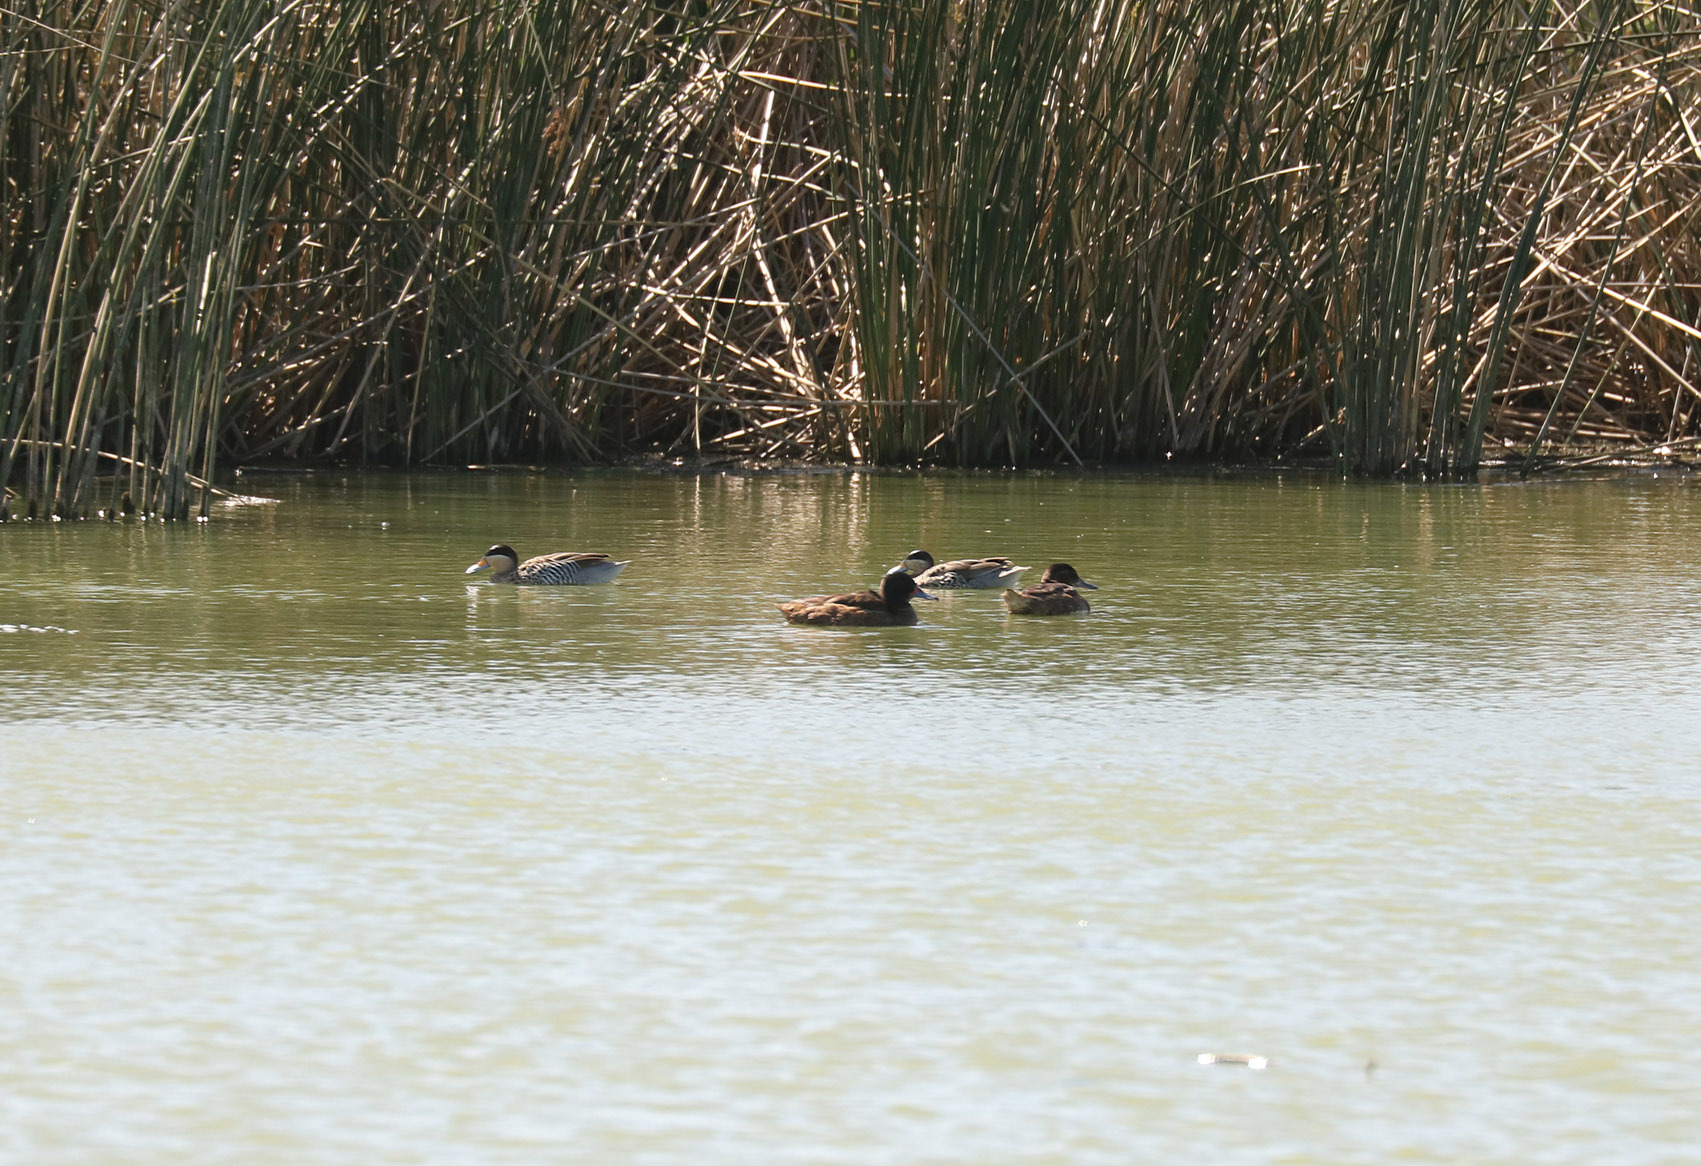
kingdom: Animalia
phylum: Chordata
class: Aves
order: Anseriformes
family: Anatidae
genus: Heteronetta
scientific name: Heteronetta atricapilla
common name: Black-headed duck
